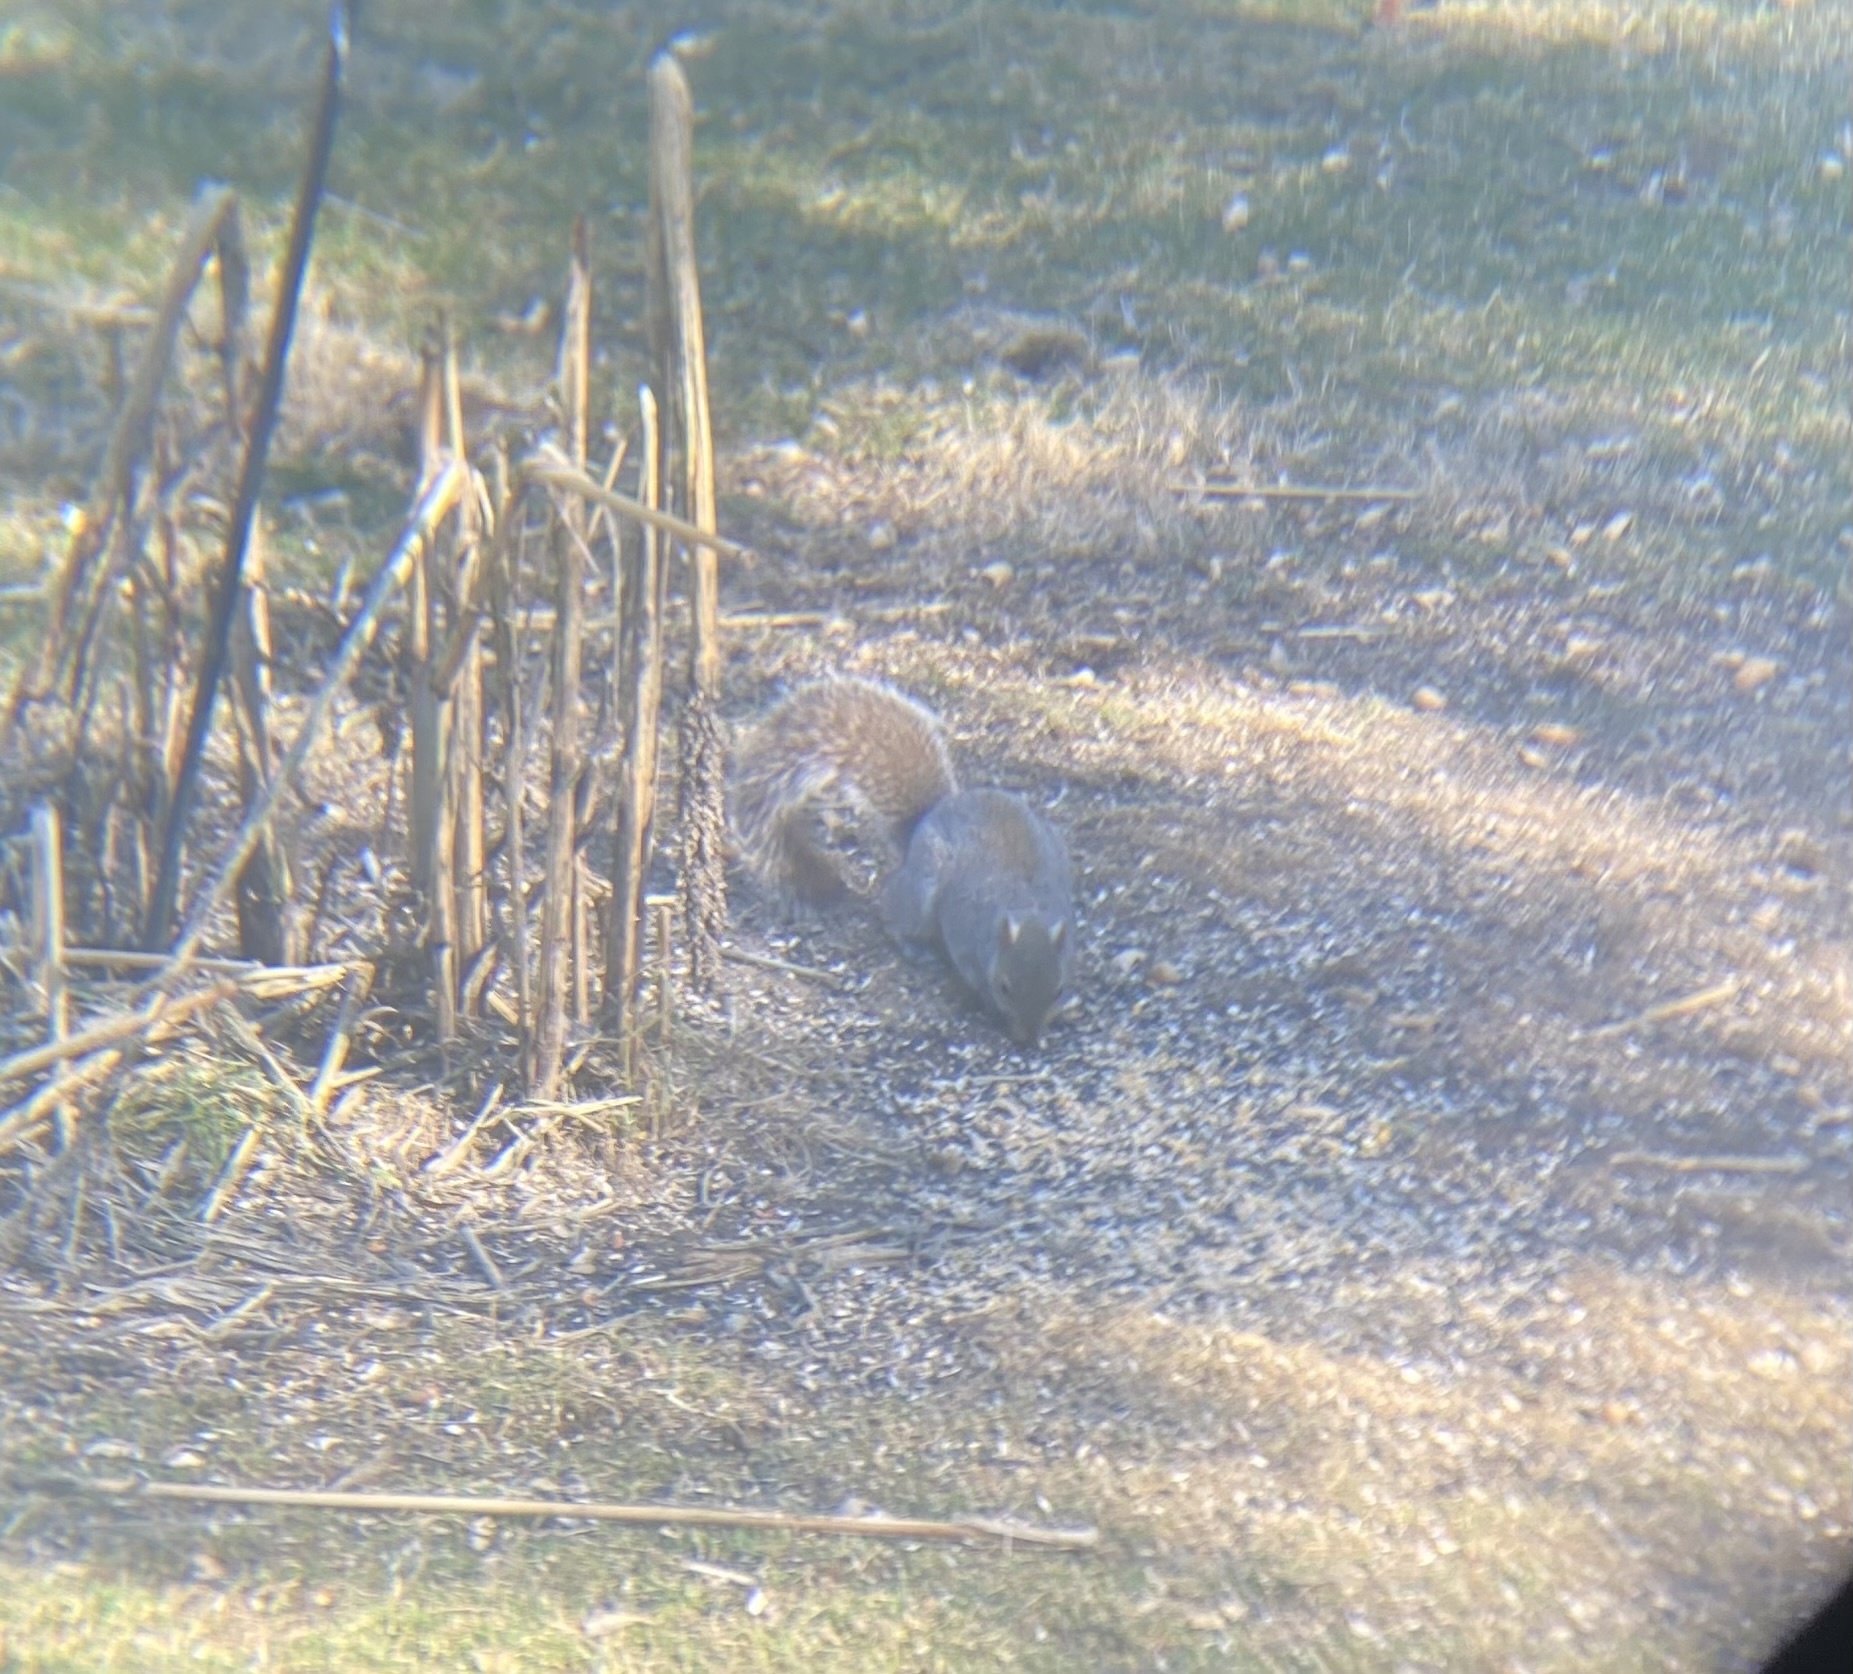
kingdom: Animalia
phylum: Chordata
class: Mammalia
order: Rodentia
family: Sciuridae
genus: Sciurus
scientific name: Sciurus carolinensis
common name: Eastern gray squirrel
